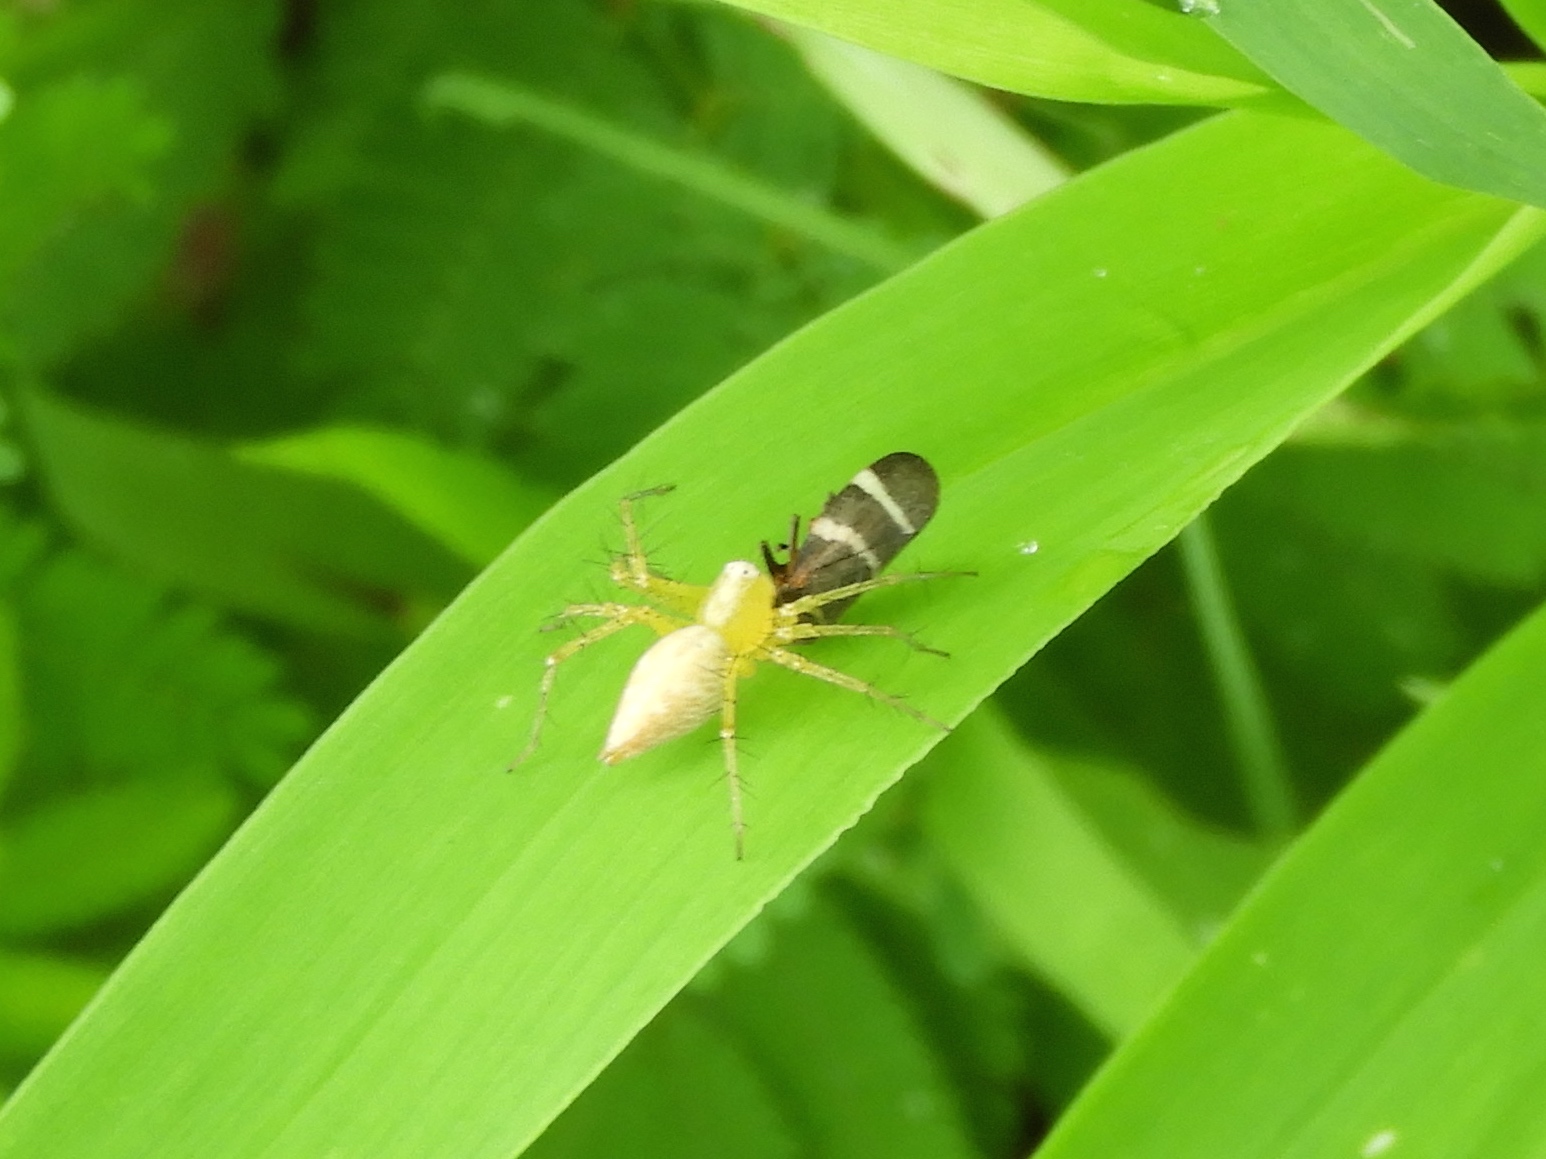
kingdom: Animalia
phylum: Arthropoda
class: Arachnida
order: Araneae
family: Oxyopidae
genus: Oxyopes
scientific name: Oxyopes
